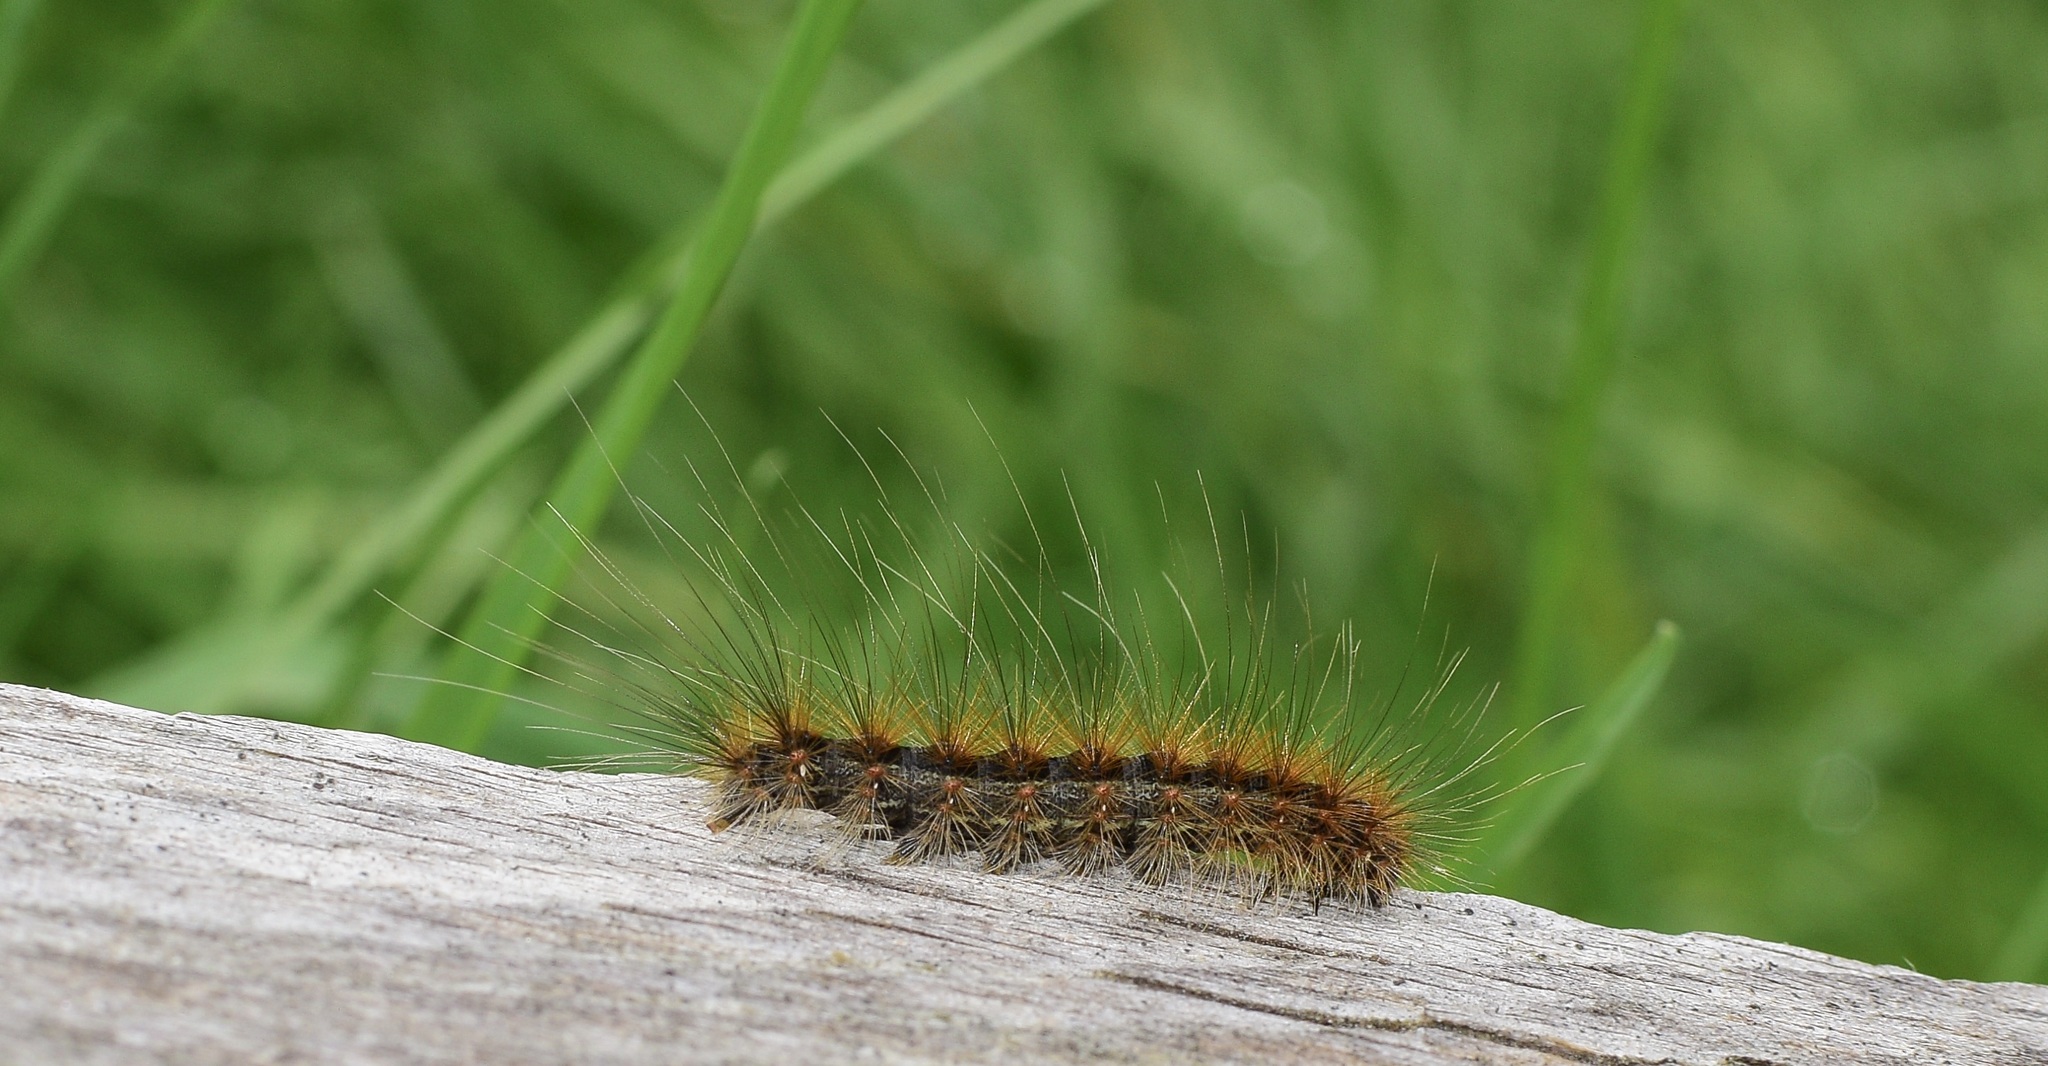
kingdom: Animalia
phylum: Arthropoda
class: Insecta
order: Lepidoptera
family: Erebidae
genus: Hyphantria
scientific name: Hyphantria cunea
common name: American white moth
